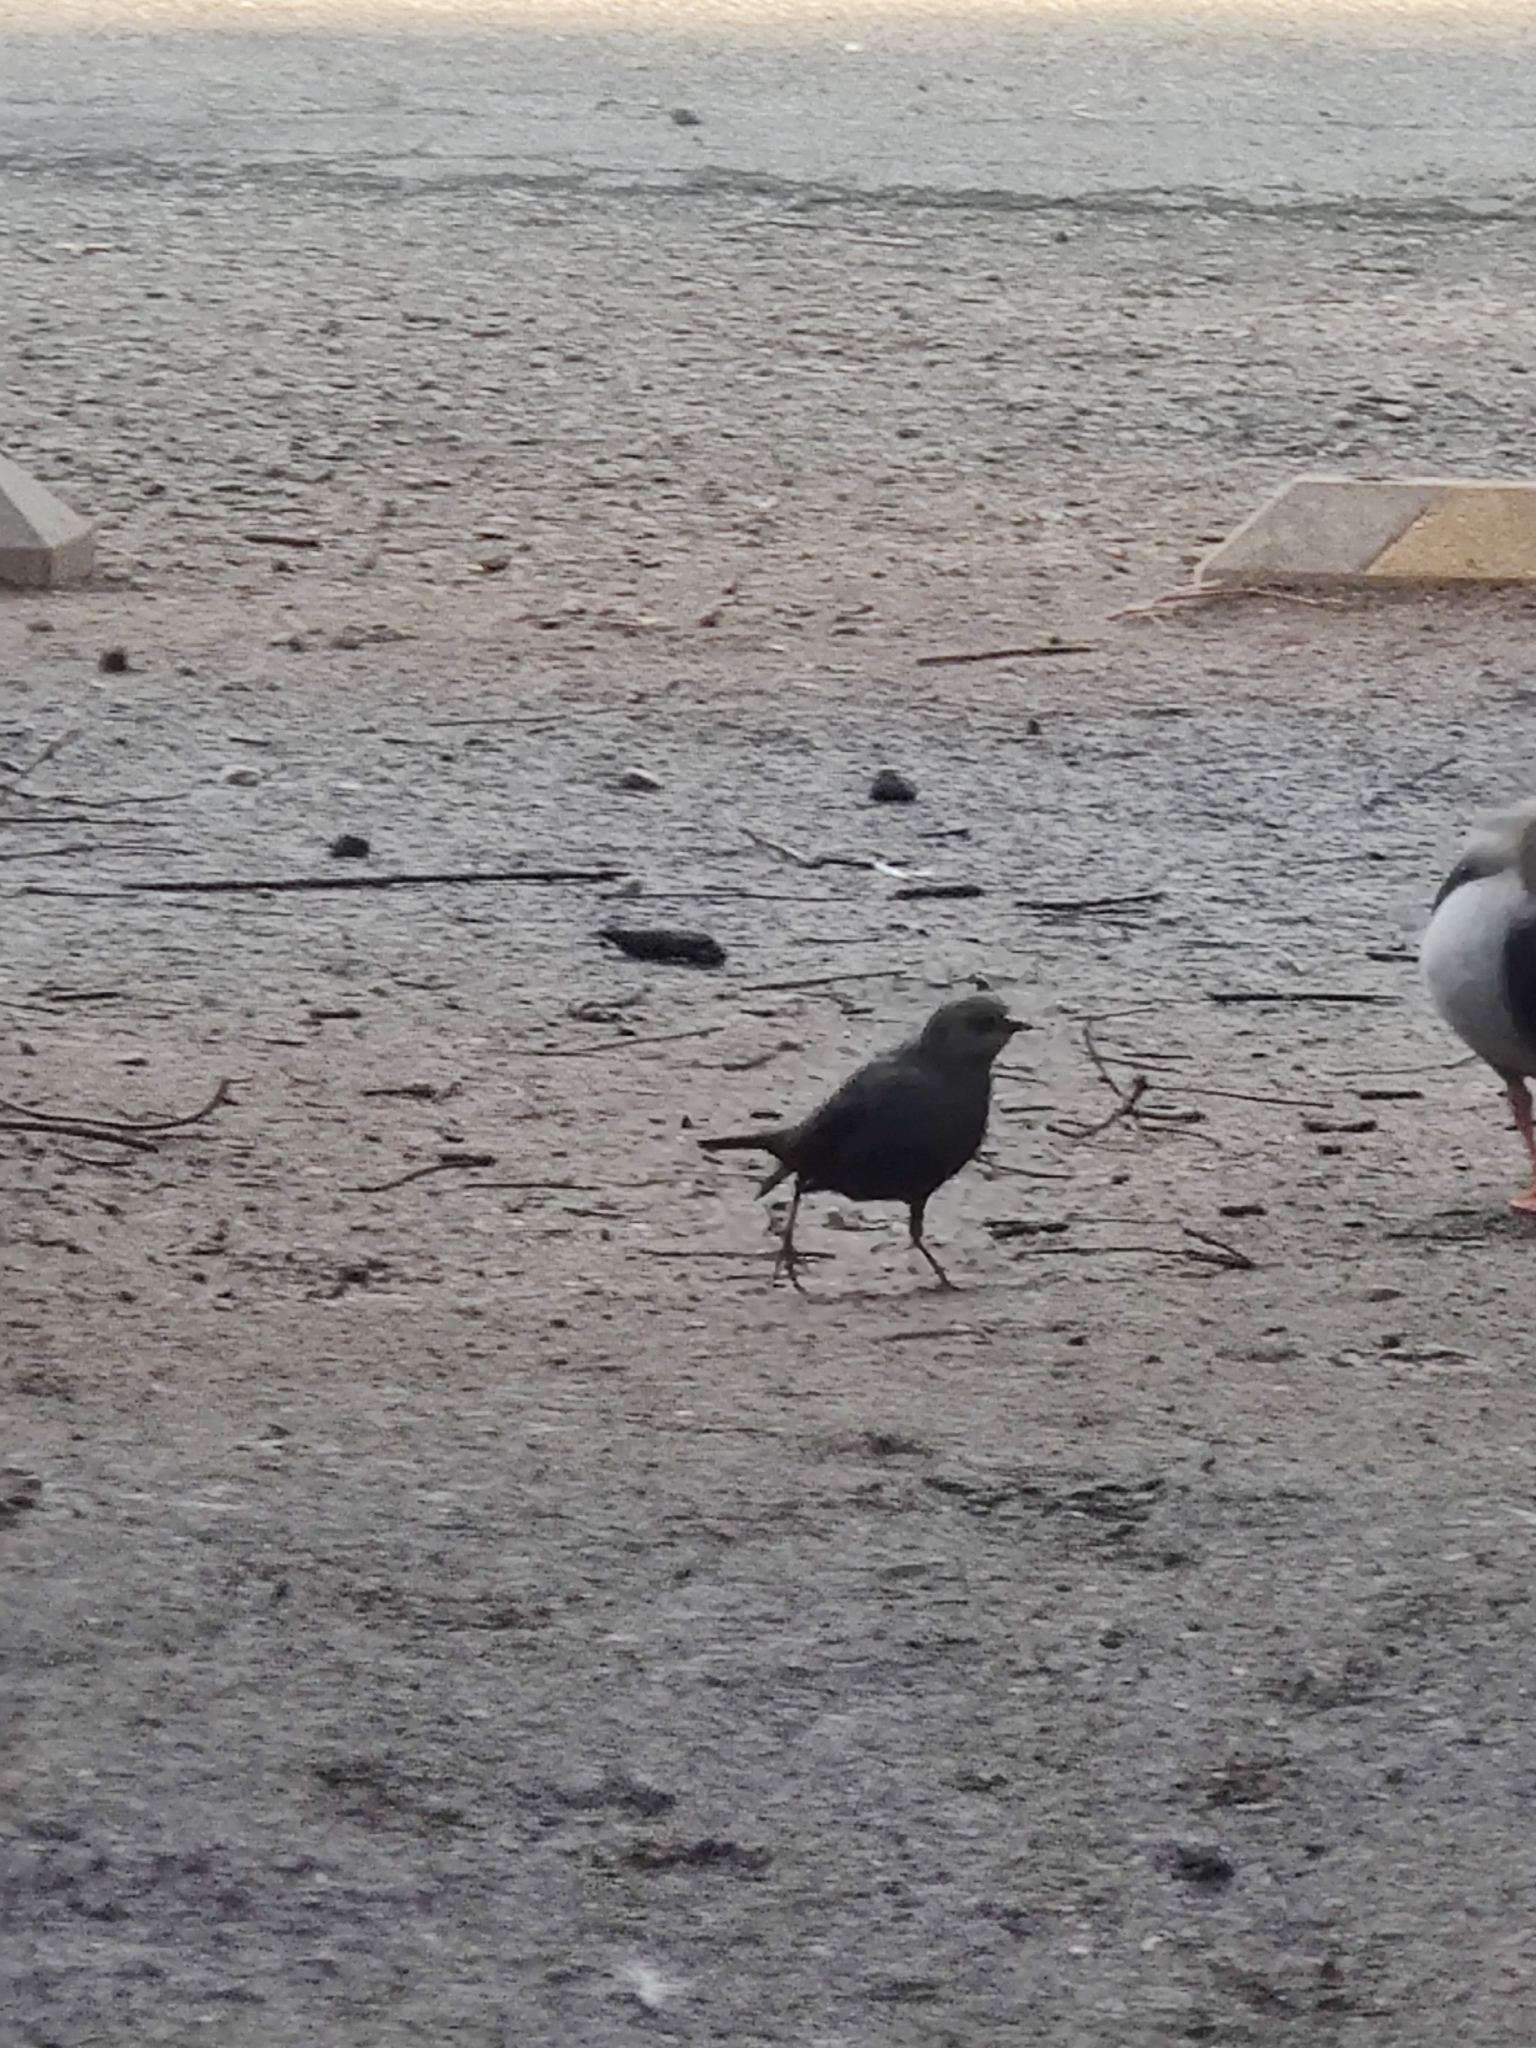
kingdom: Animalia
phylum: Chordata
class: Aves
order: Passeriformes
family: Icteridae
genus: Euphagus
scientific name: Euphagus cyanocephalus
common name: Brewer's blackbird
